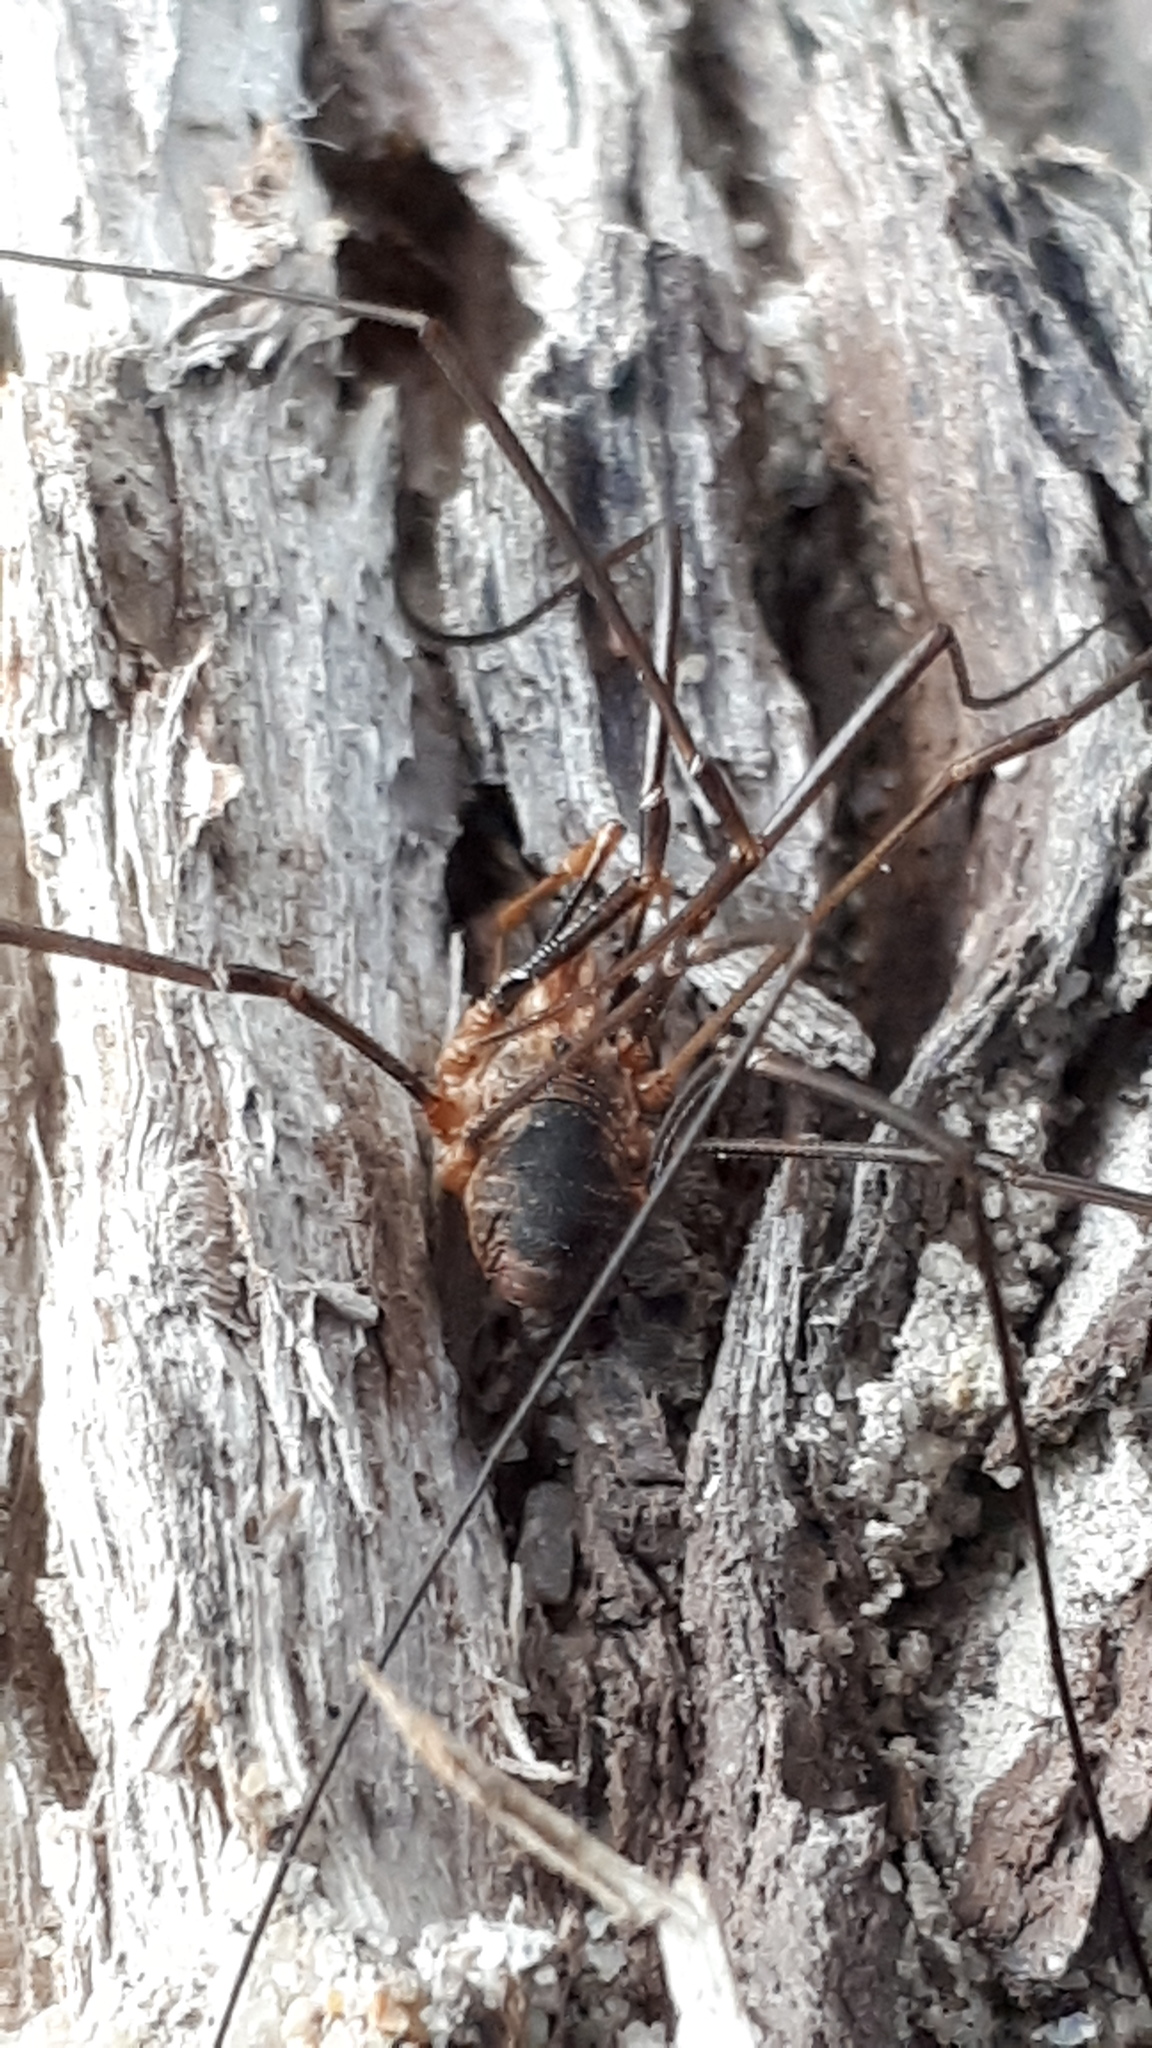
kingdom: Animalia
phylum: Arthropoda
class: Arachnida
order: Opiliones
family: Phalangiidae
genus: Phalangium
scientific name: Phalangium opilio
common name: Daddy longleg
